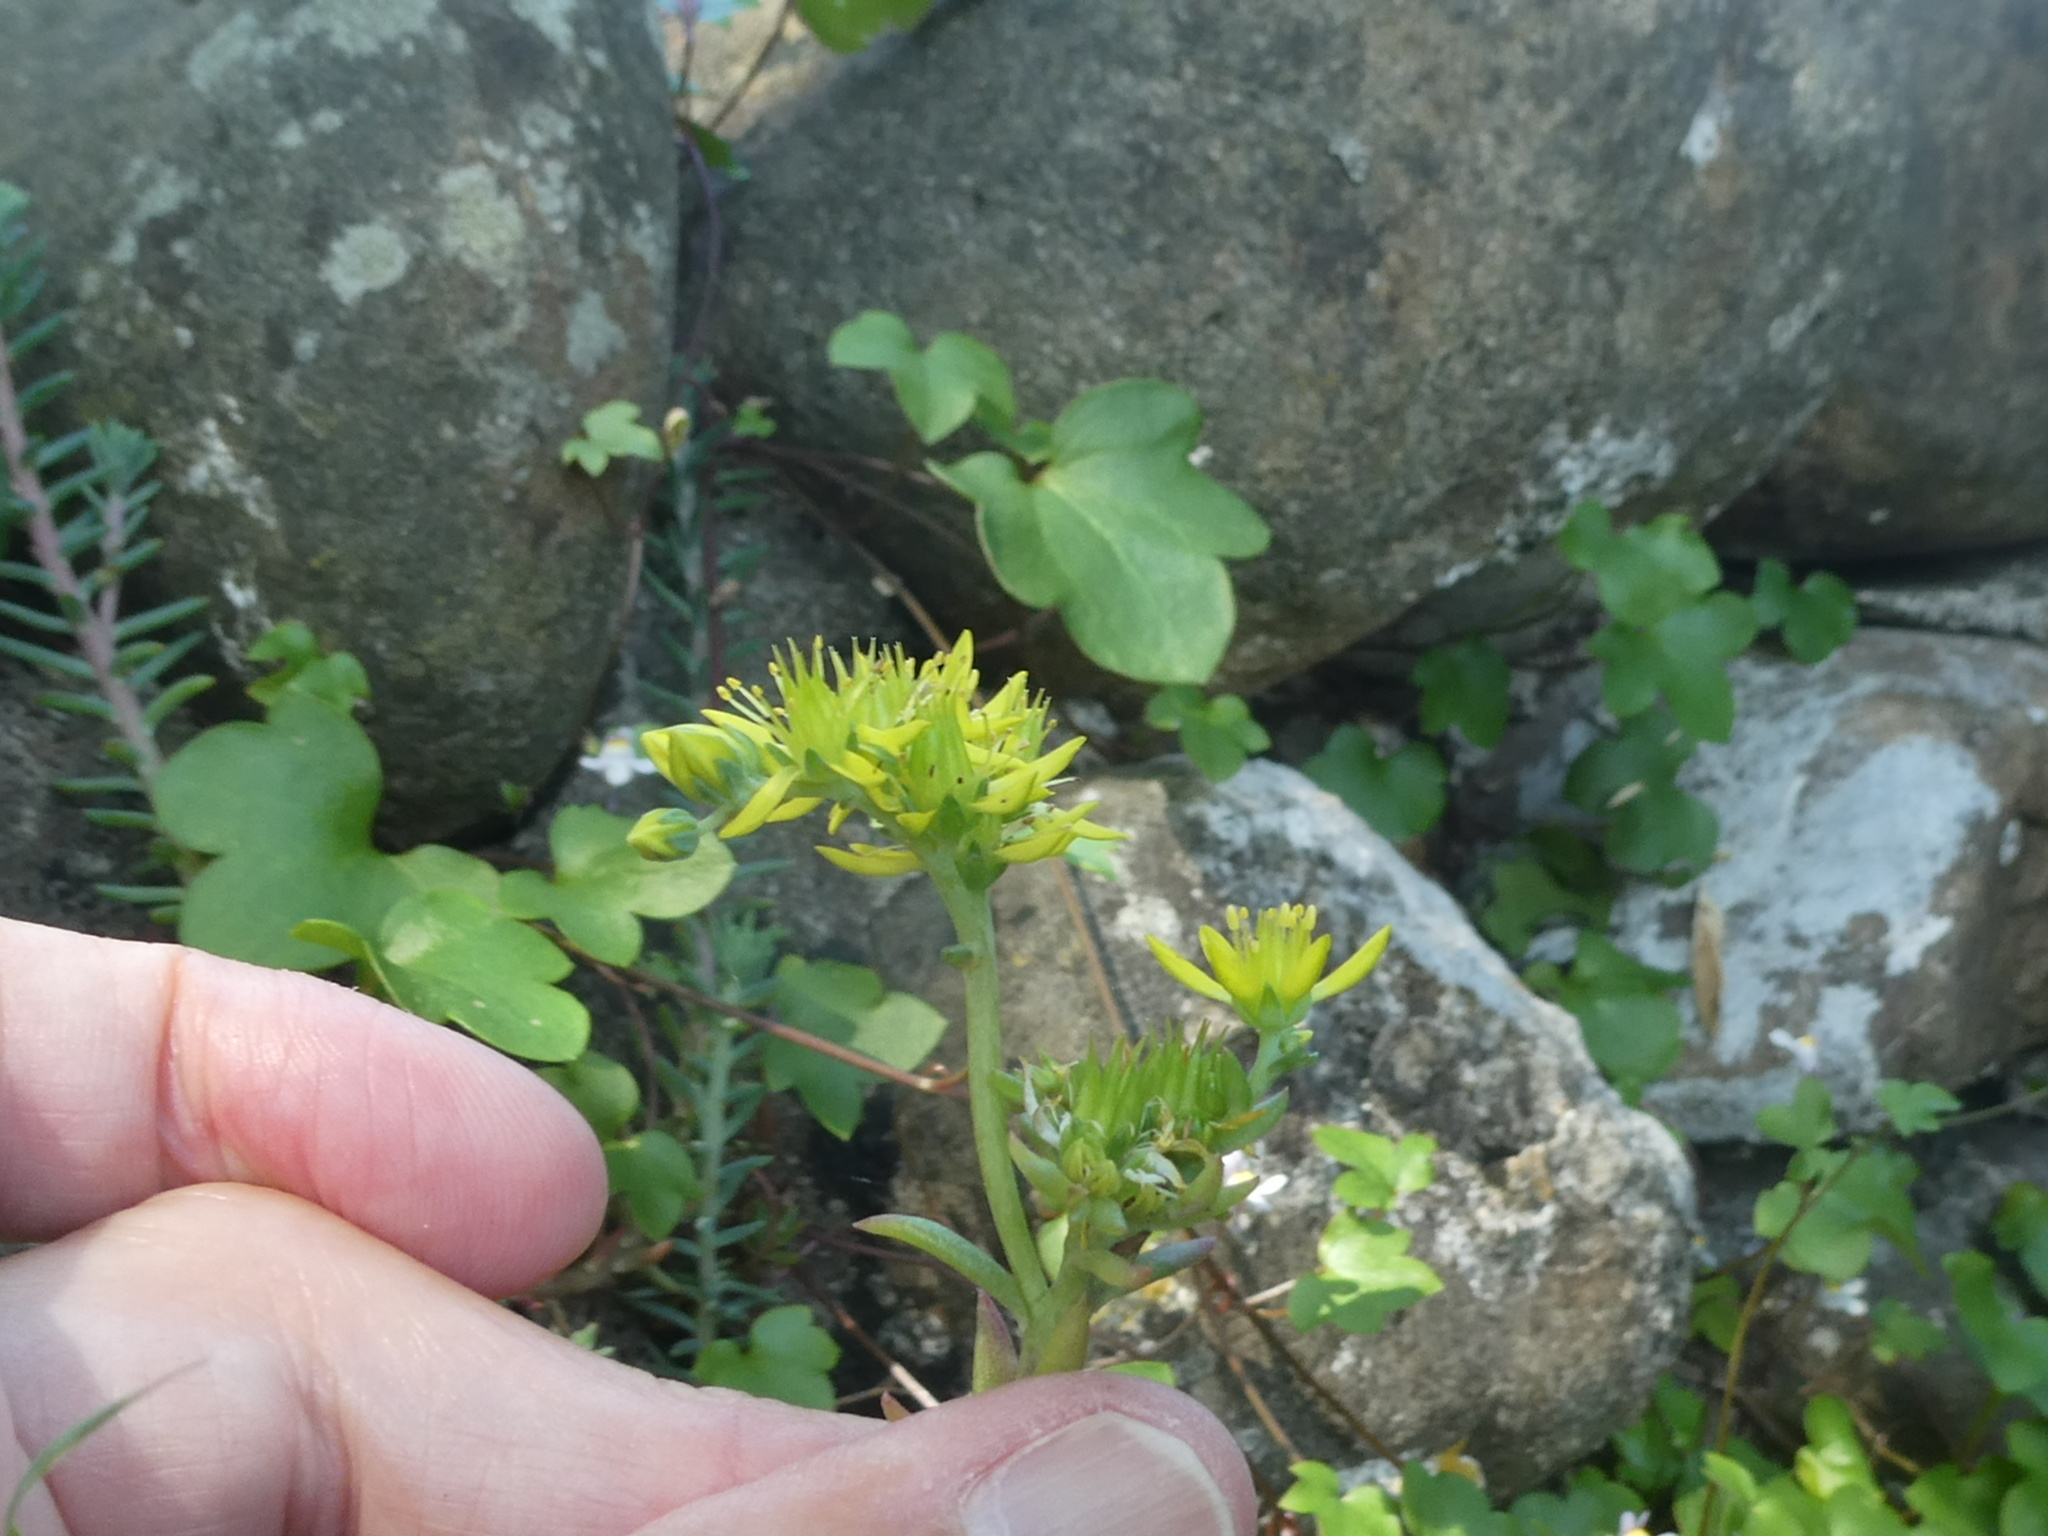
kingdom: Plantae
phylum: Tracheophyta
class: Magnoliopsida
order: Saxifragales
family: Crassulaceae
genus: Petrosedum
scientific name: Petrosedum rupestre
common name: Jenny's stonecrop
